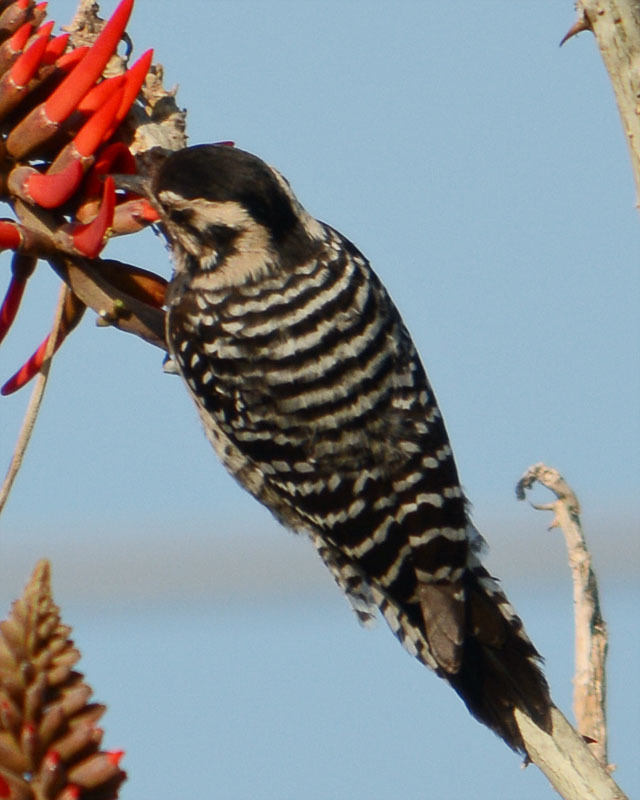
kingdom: Animalia
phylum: Chordata
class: Aves
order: Piciformes
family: Picidae
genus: Dryobates
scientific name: Dryobates scalaris
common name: Ladder-backed woodpecker
